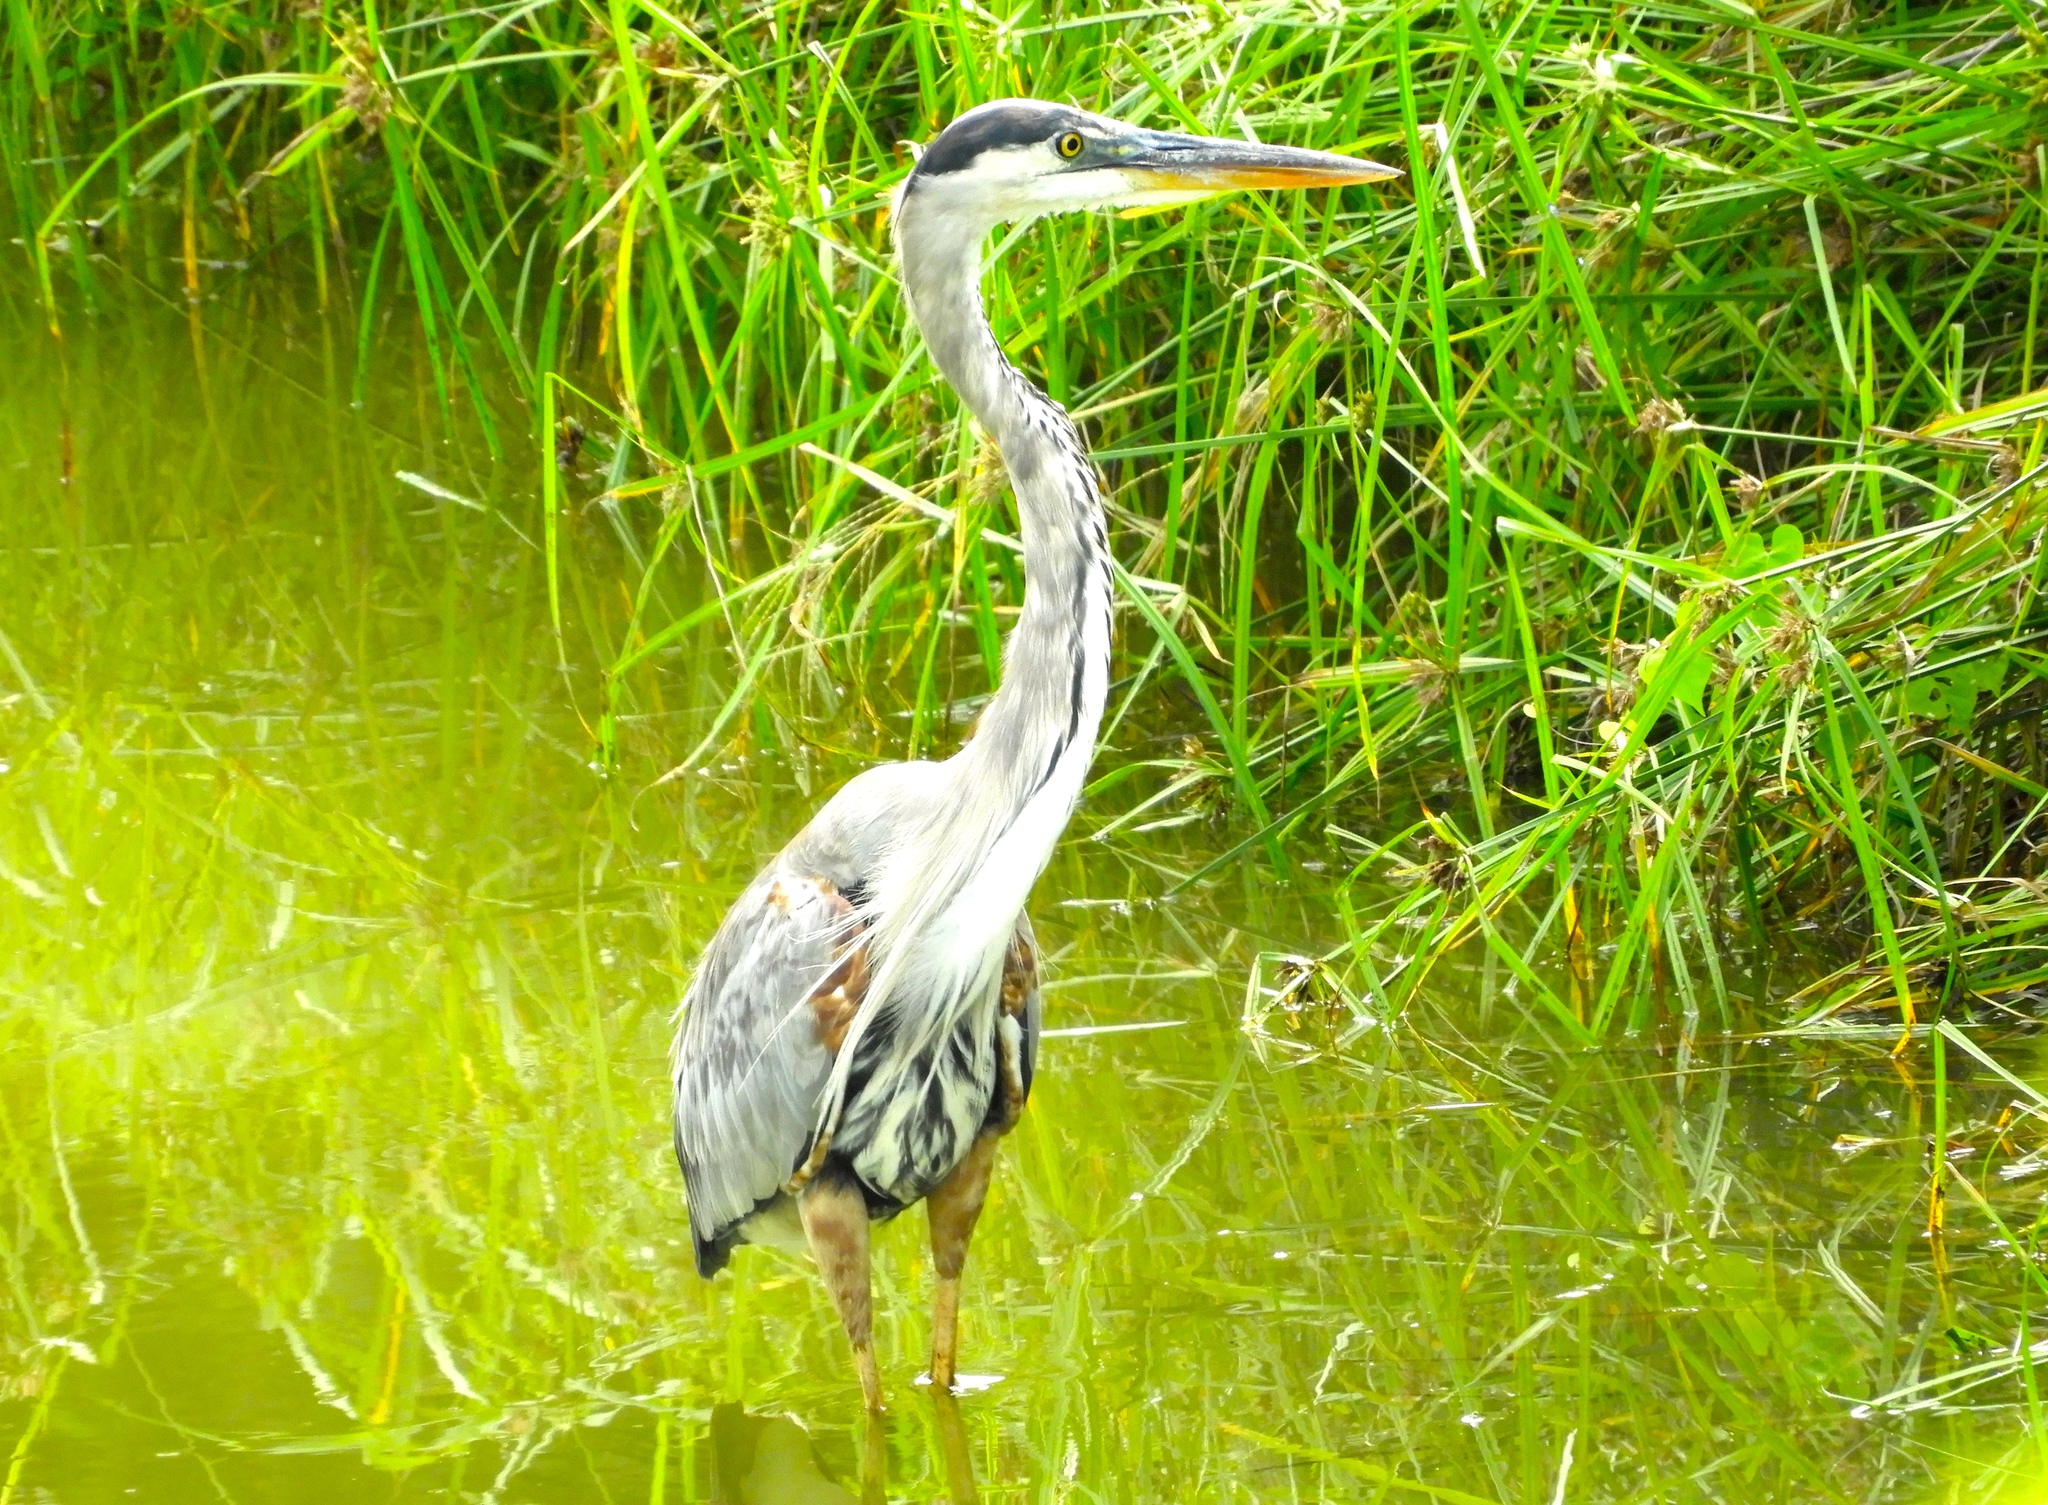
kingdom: Animalia
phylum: Chordata
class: Aves
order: Pelecaniformes
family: Ardeidae
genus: Ardea
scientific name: Ardea herodias
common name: Great blue heron
